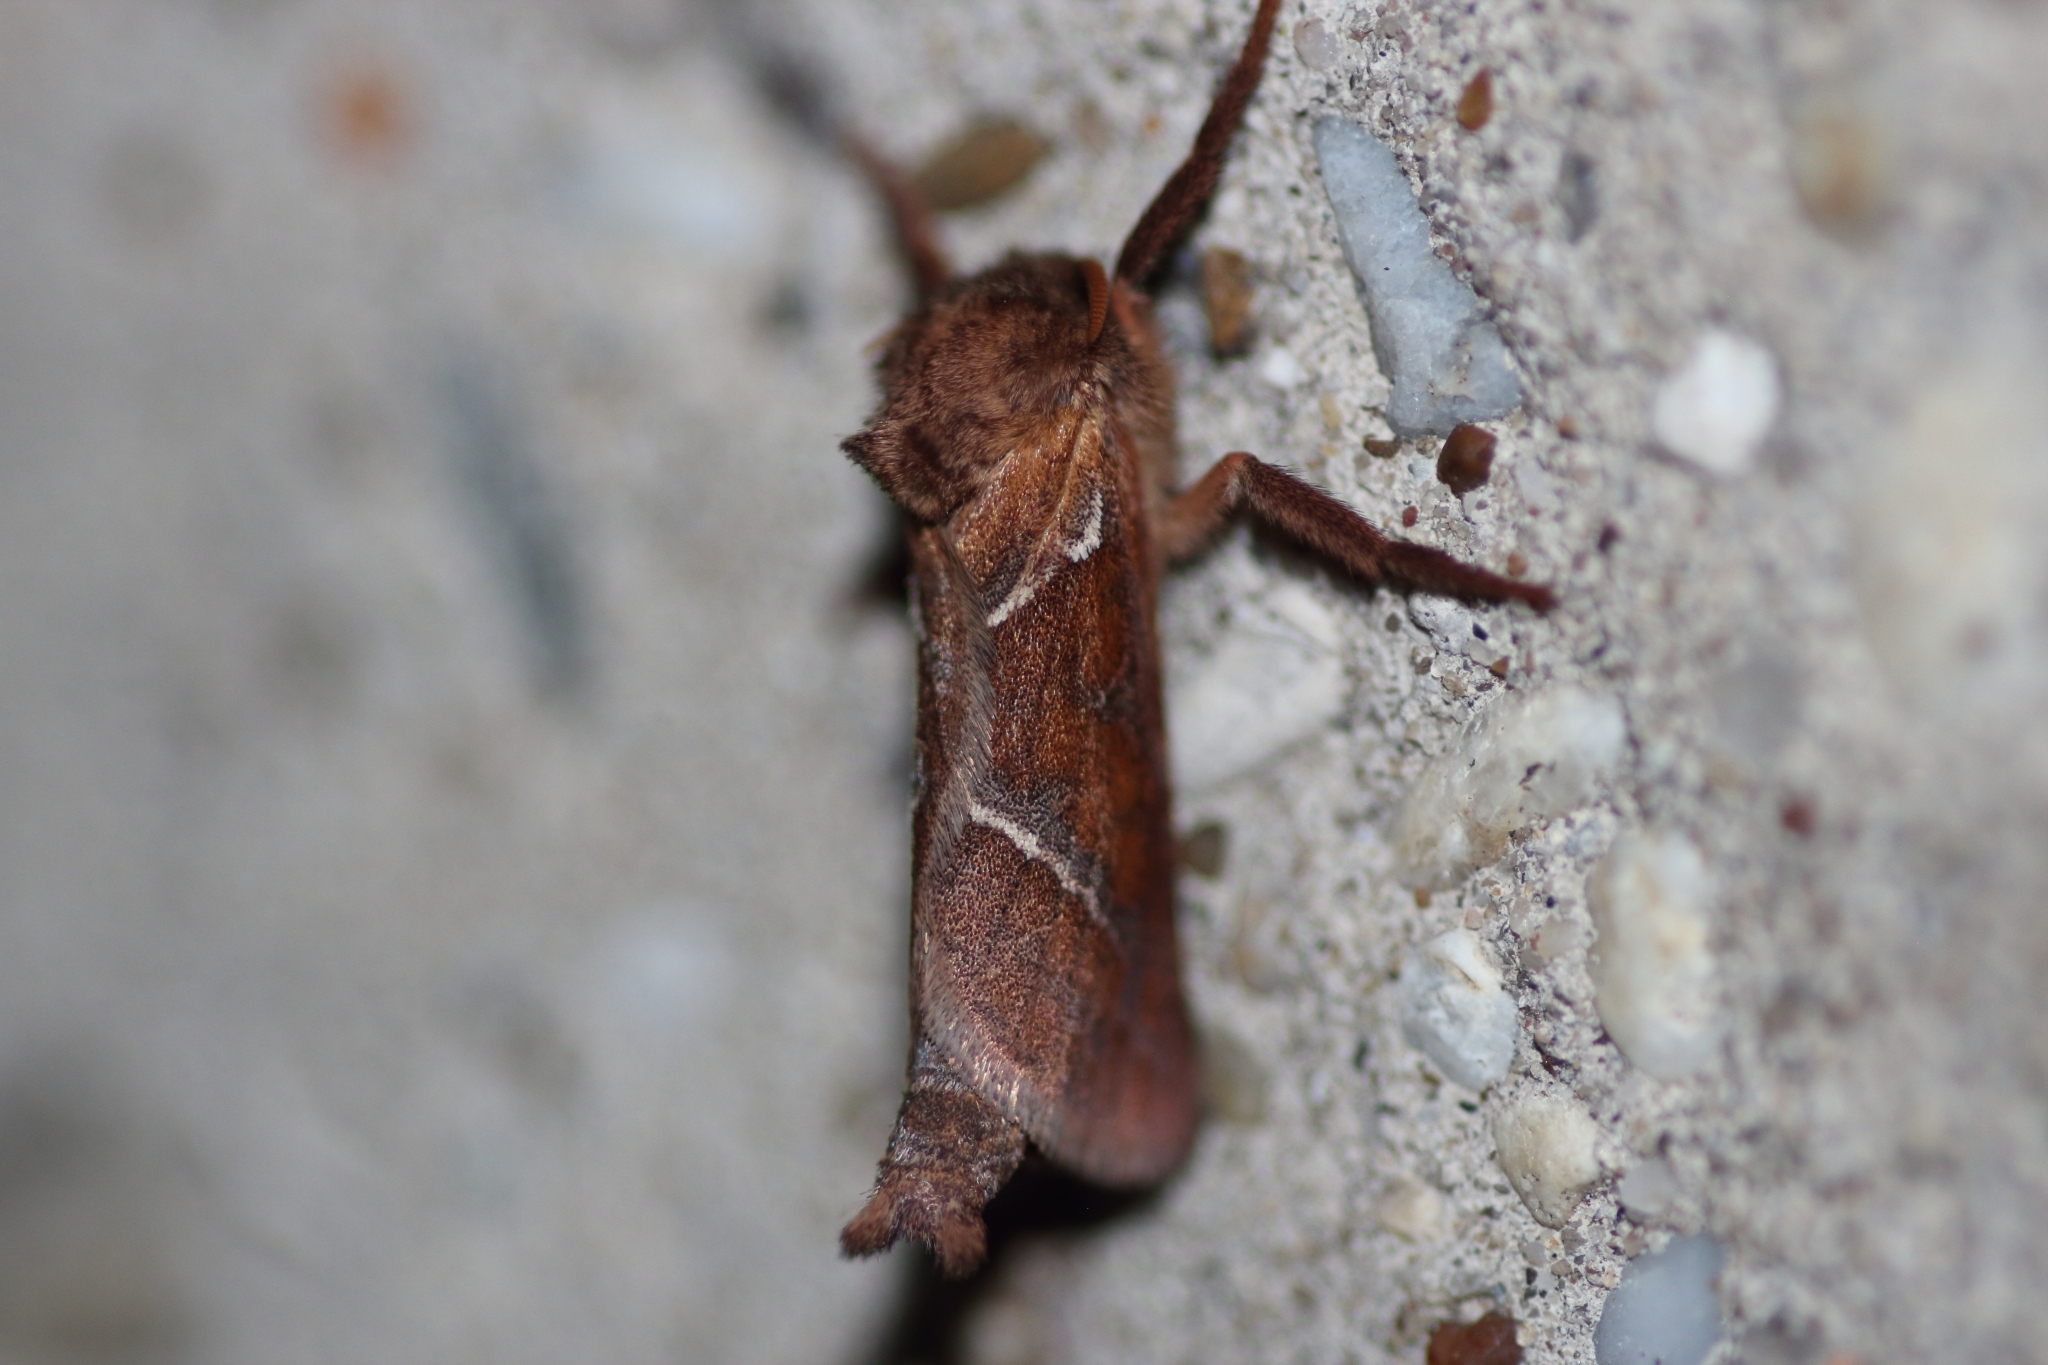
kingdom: Animalia
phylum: Arthropoda
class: Insecta
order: Lepidoptera
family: Hepialidae
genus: Triodia
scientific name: Triodia sylvina
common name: Orange swift
